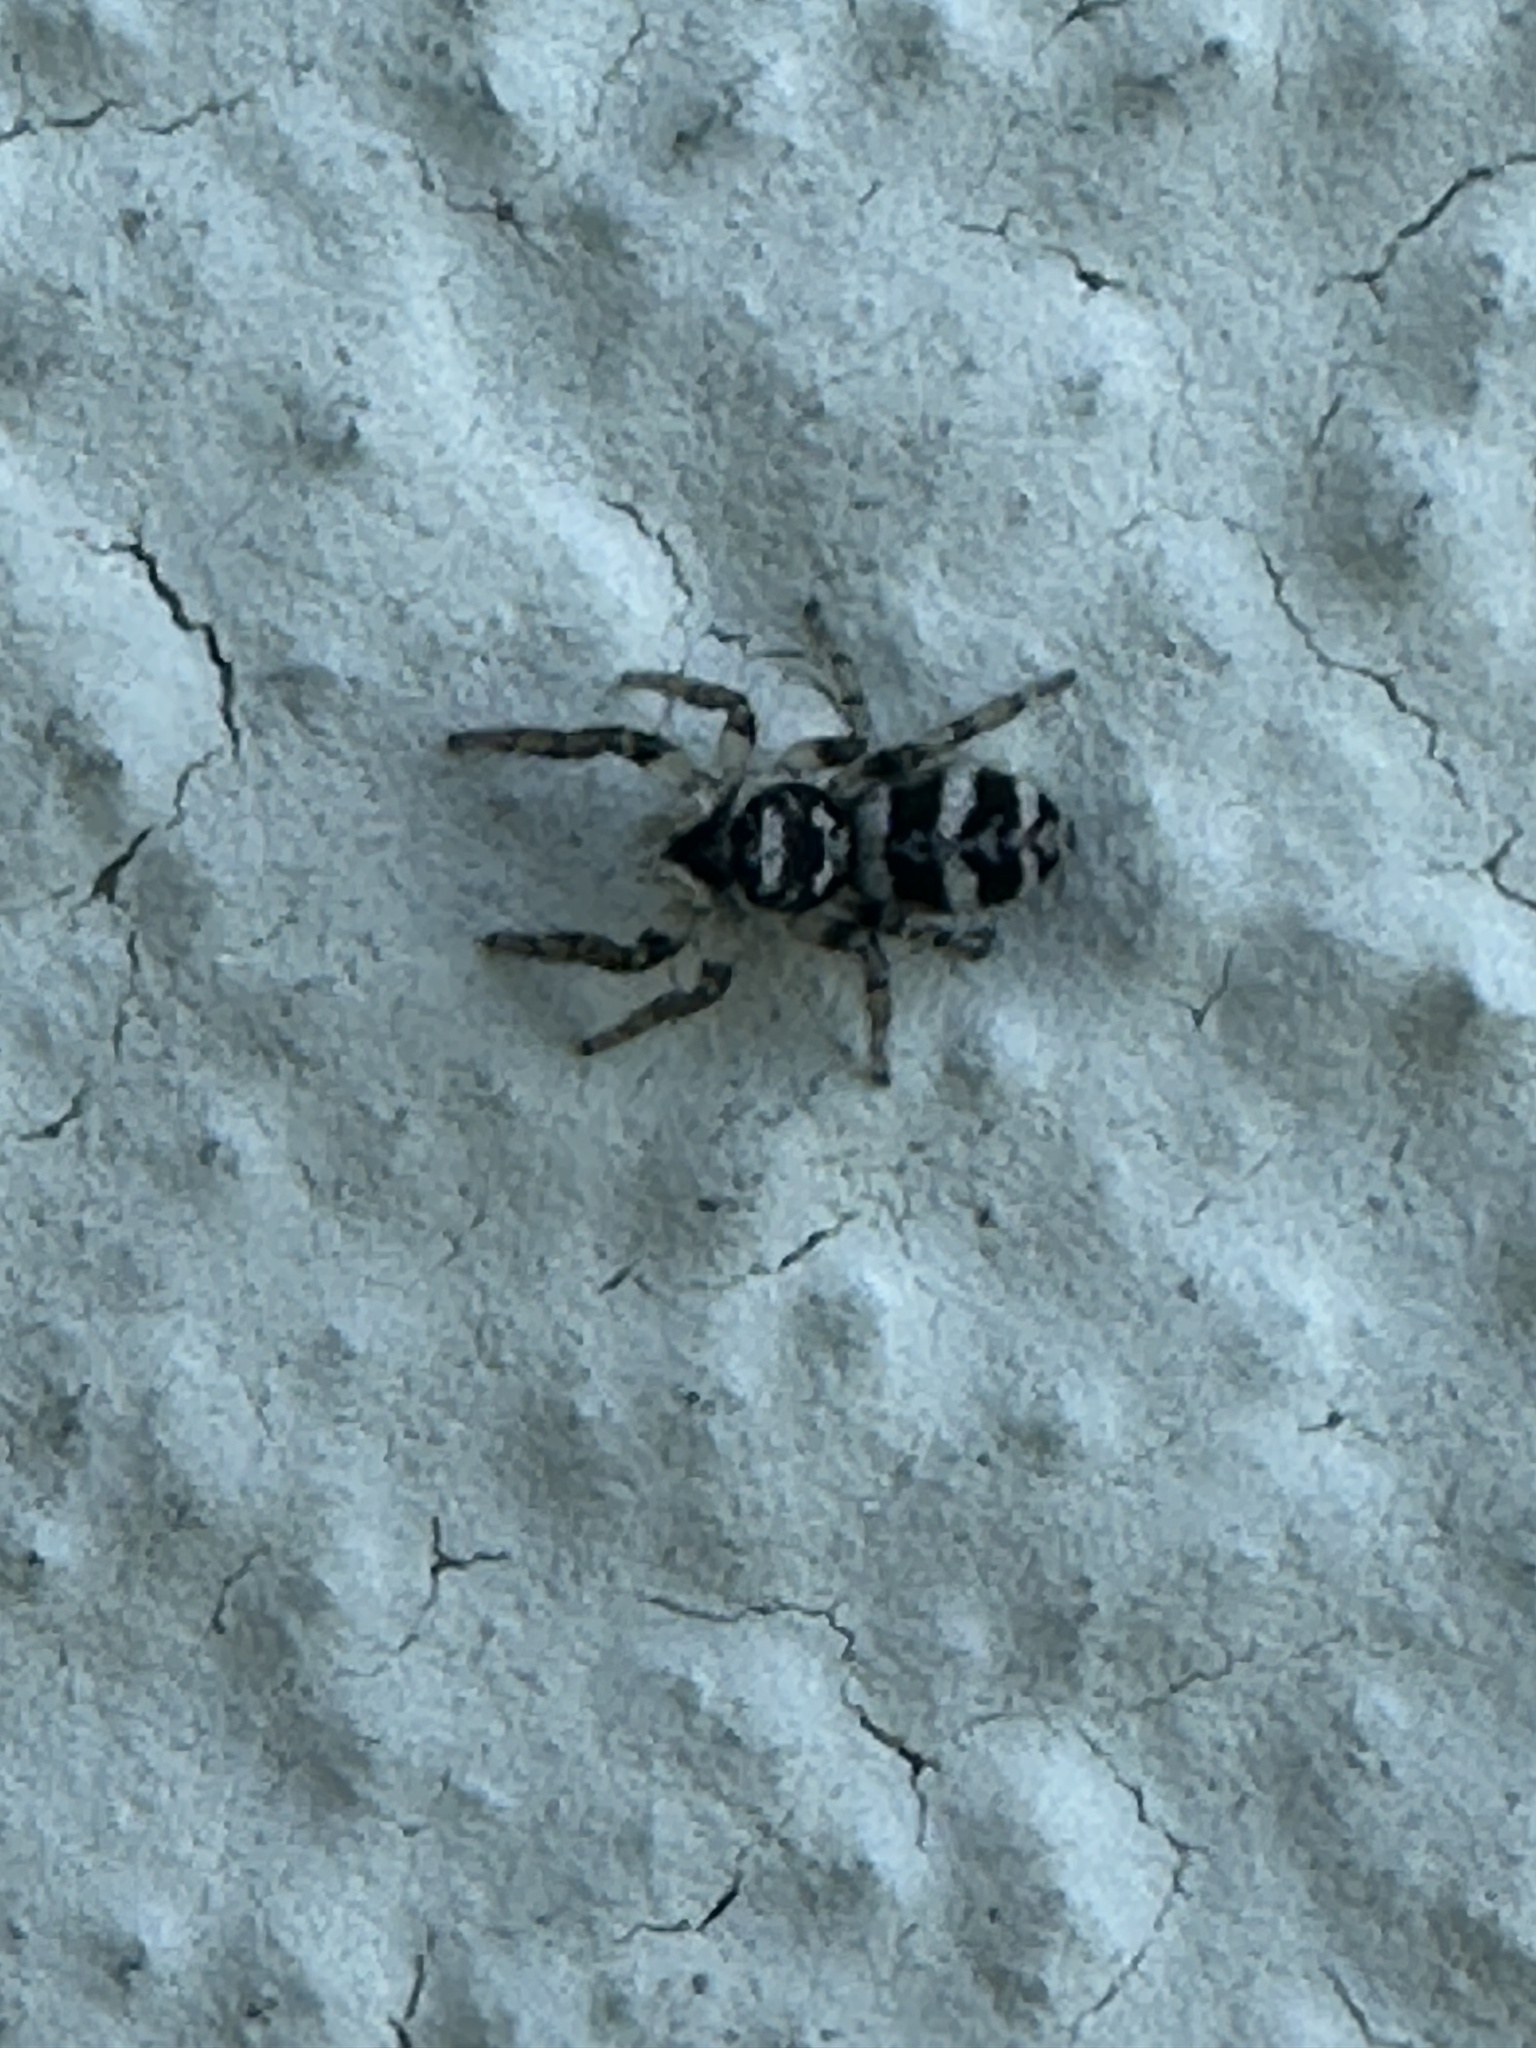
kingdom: Animalia
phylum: Arthropoda
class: Arachnida
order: Araneae
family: Salticidae
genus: Salticus
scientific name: Salticus scenicus
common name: Zebra jumper
